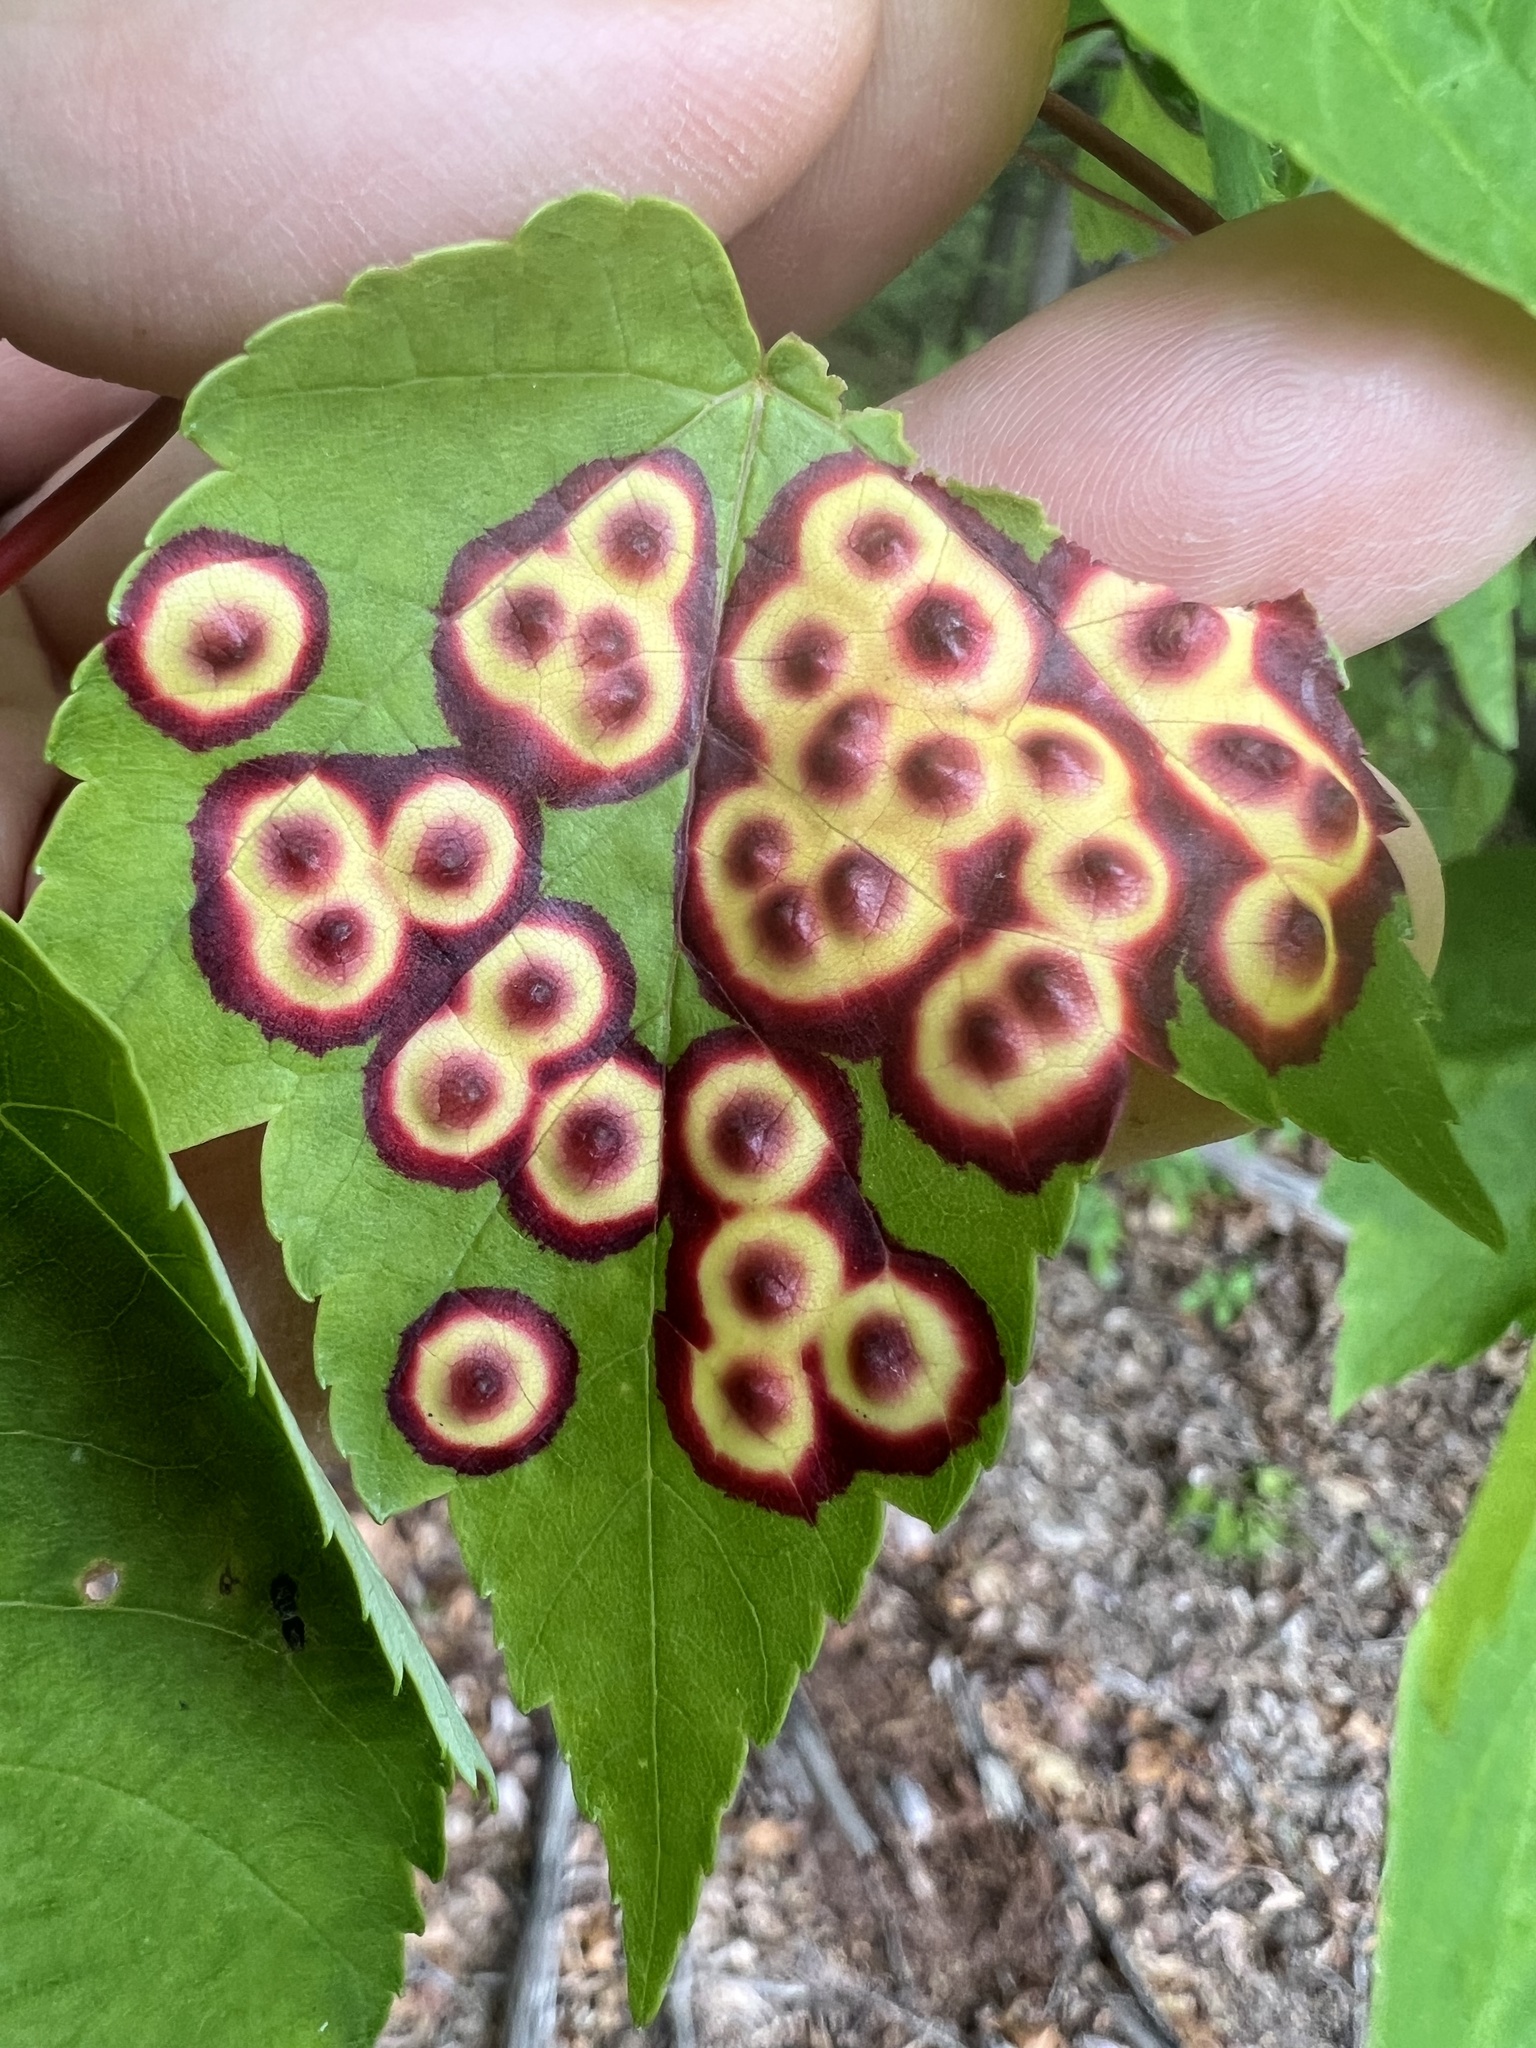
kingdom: Animalia
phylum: Arthropoda
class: Insecta
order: Diptera
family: Cecidomyiidae
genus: Acericecis
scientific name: Acericecis ocellaris
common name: Ocellate gall midge
